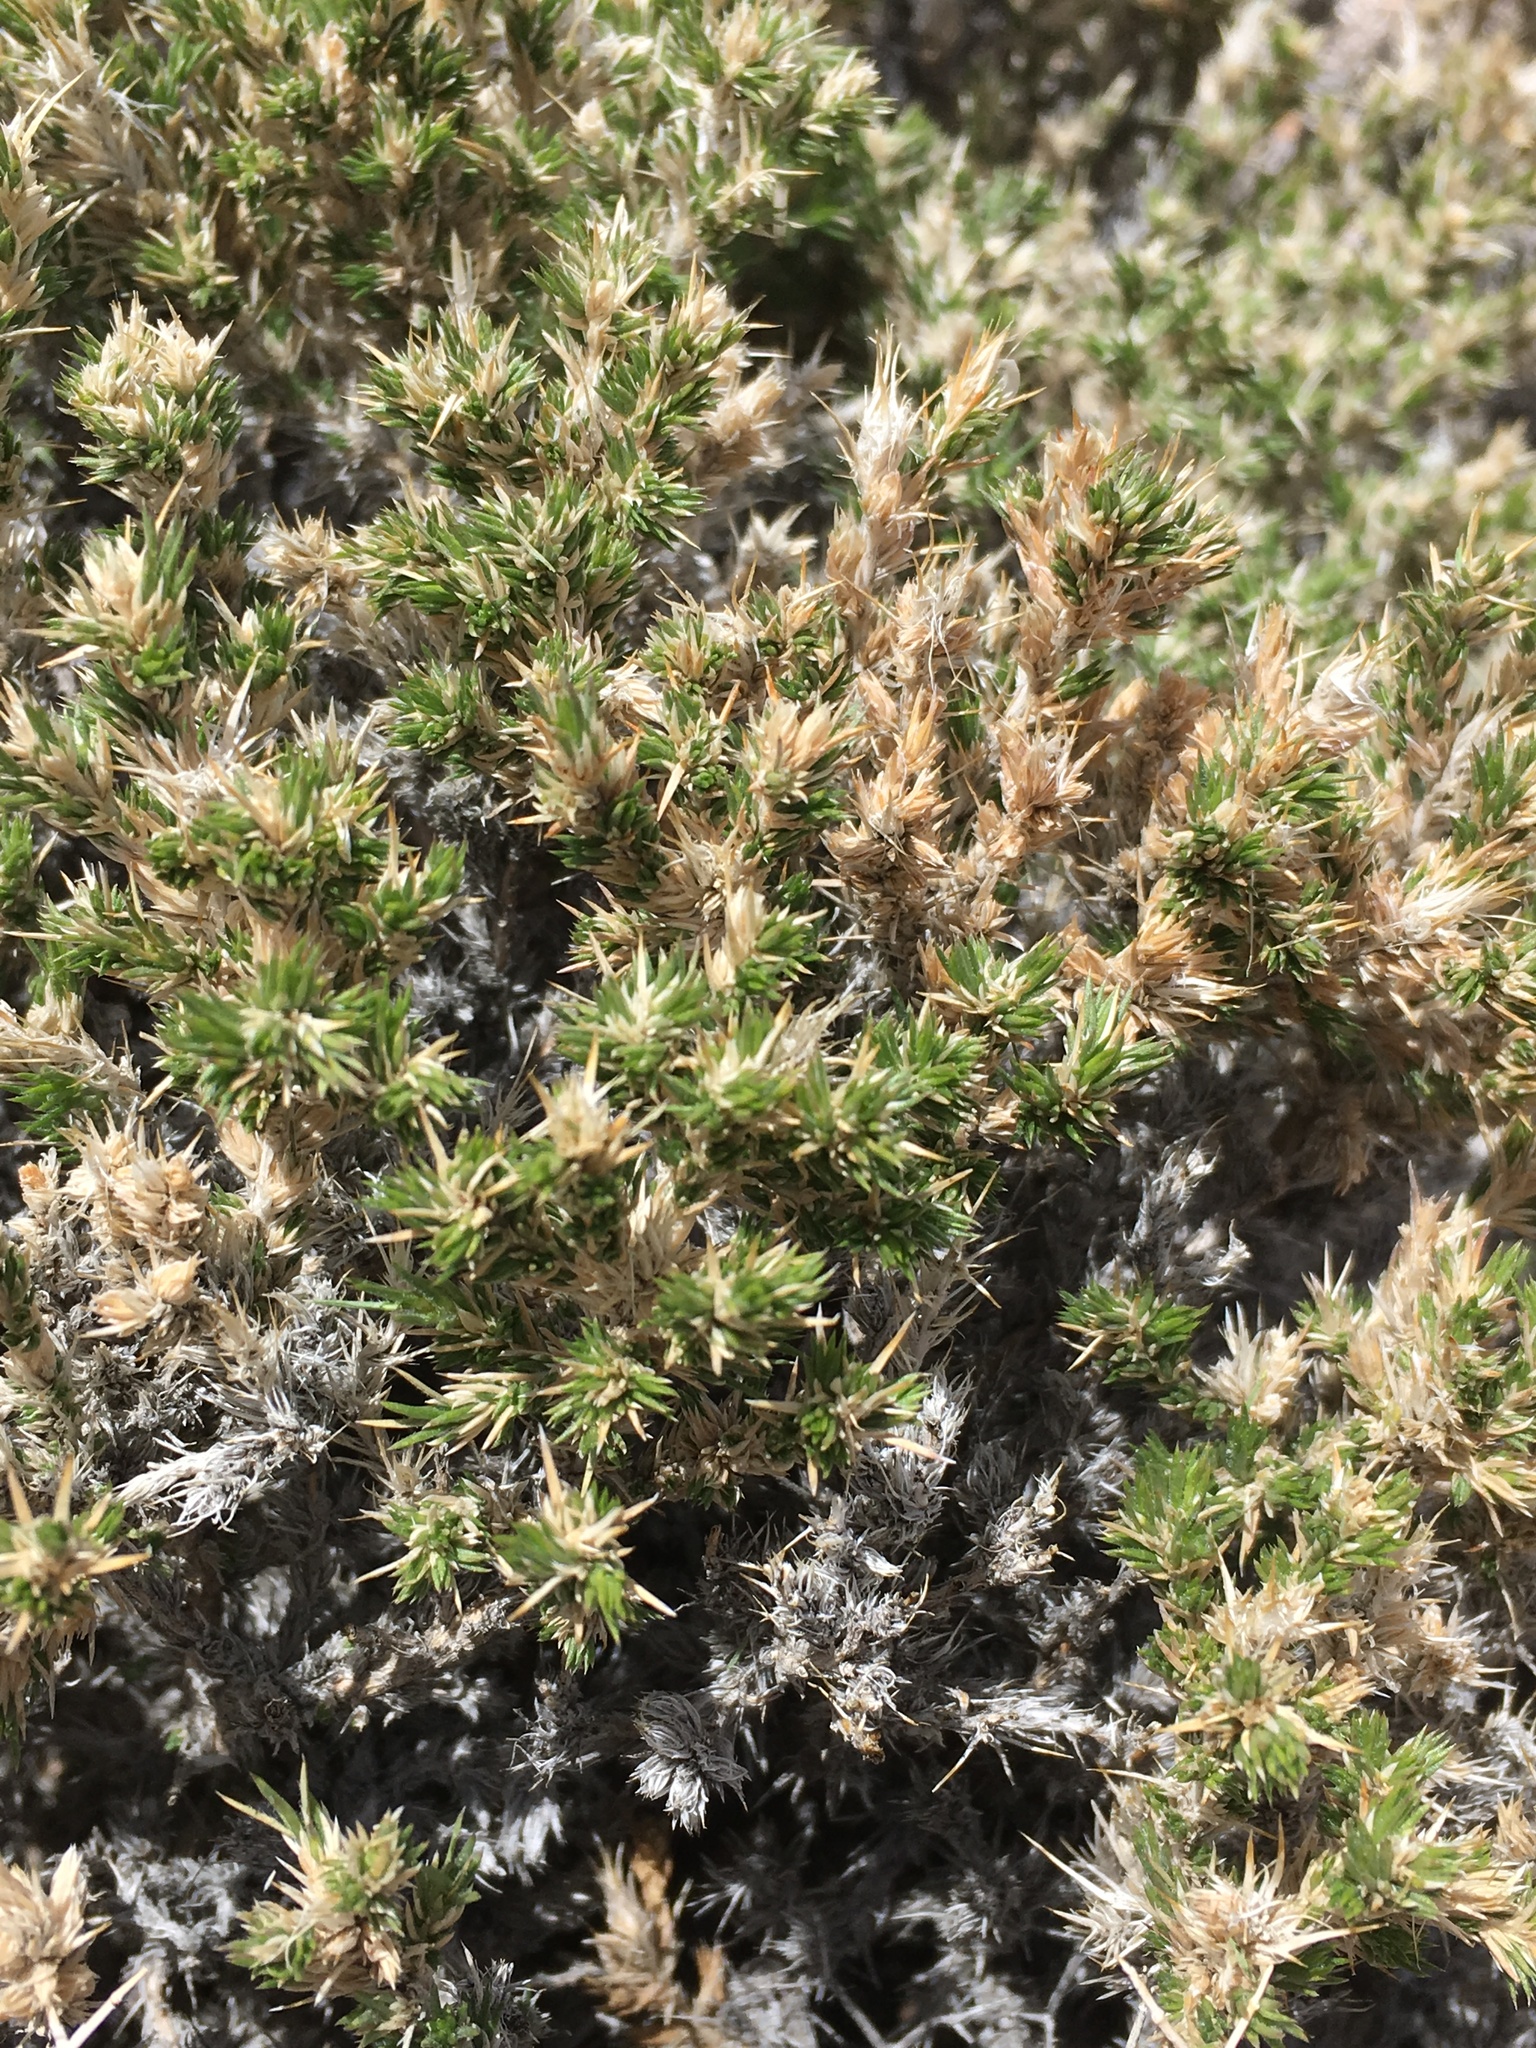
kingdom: Plantae
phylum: Tracheophyta
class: Magnoliopsida
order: Ericales
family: Polemoniaceae
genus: Linanthus
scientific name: Linanthus pungens
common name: Granite prickly phlox
